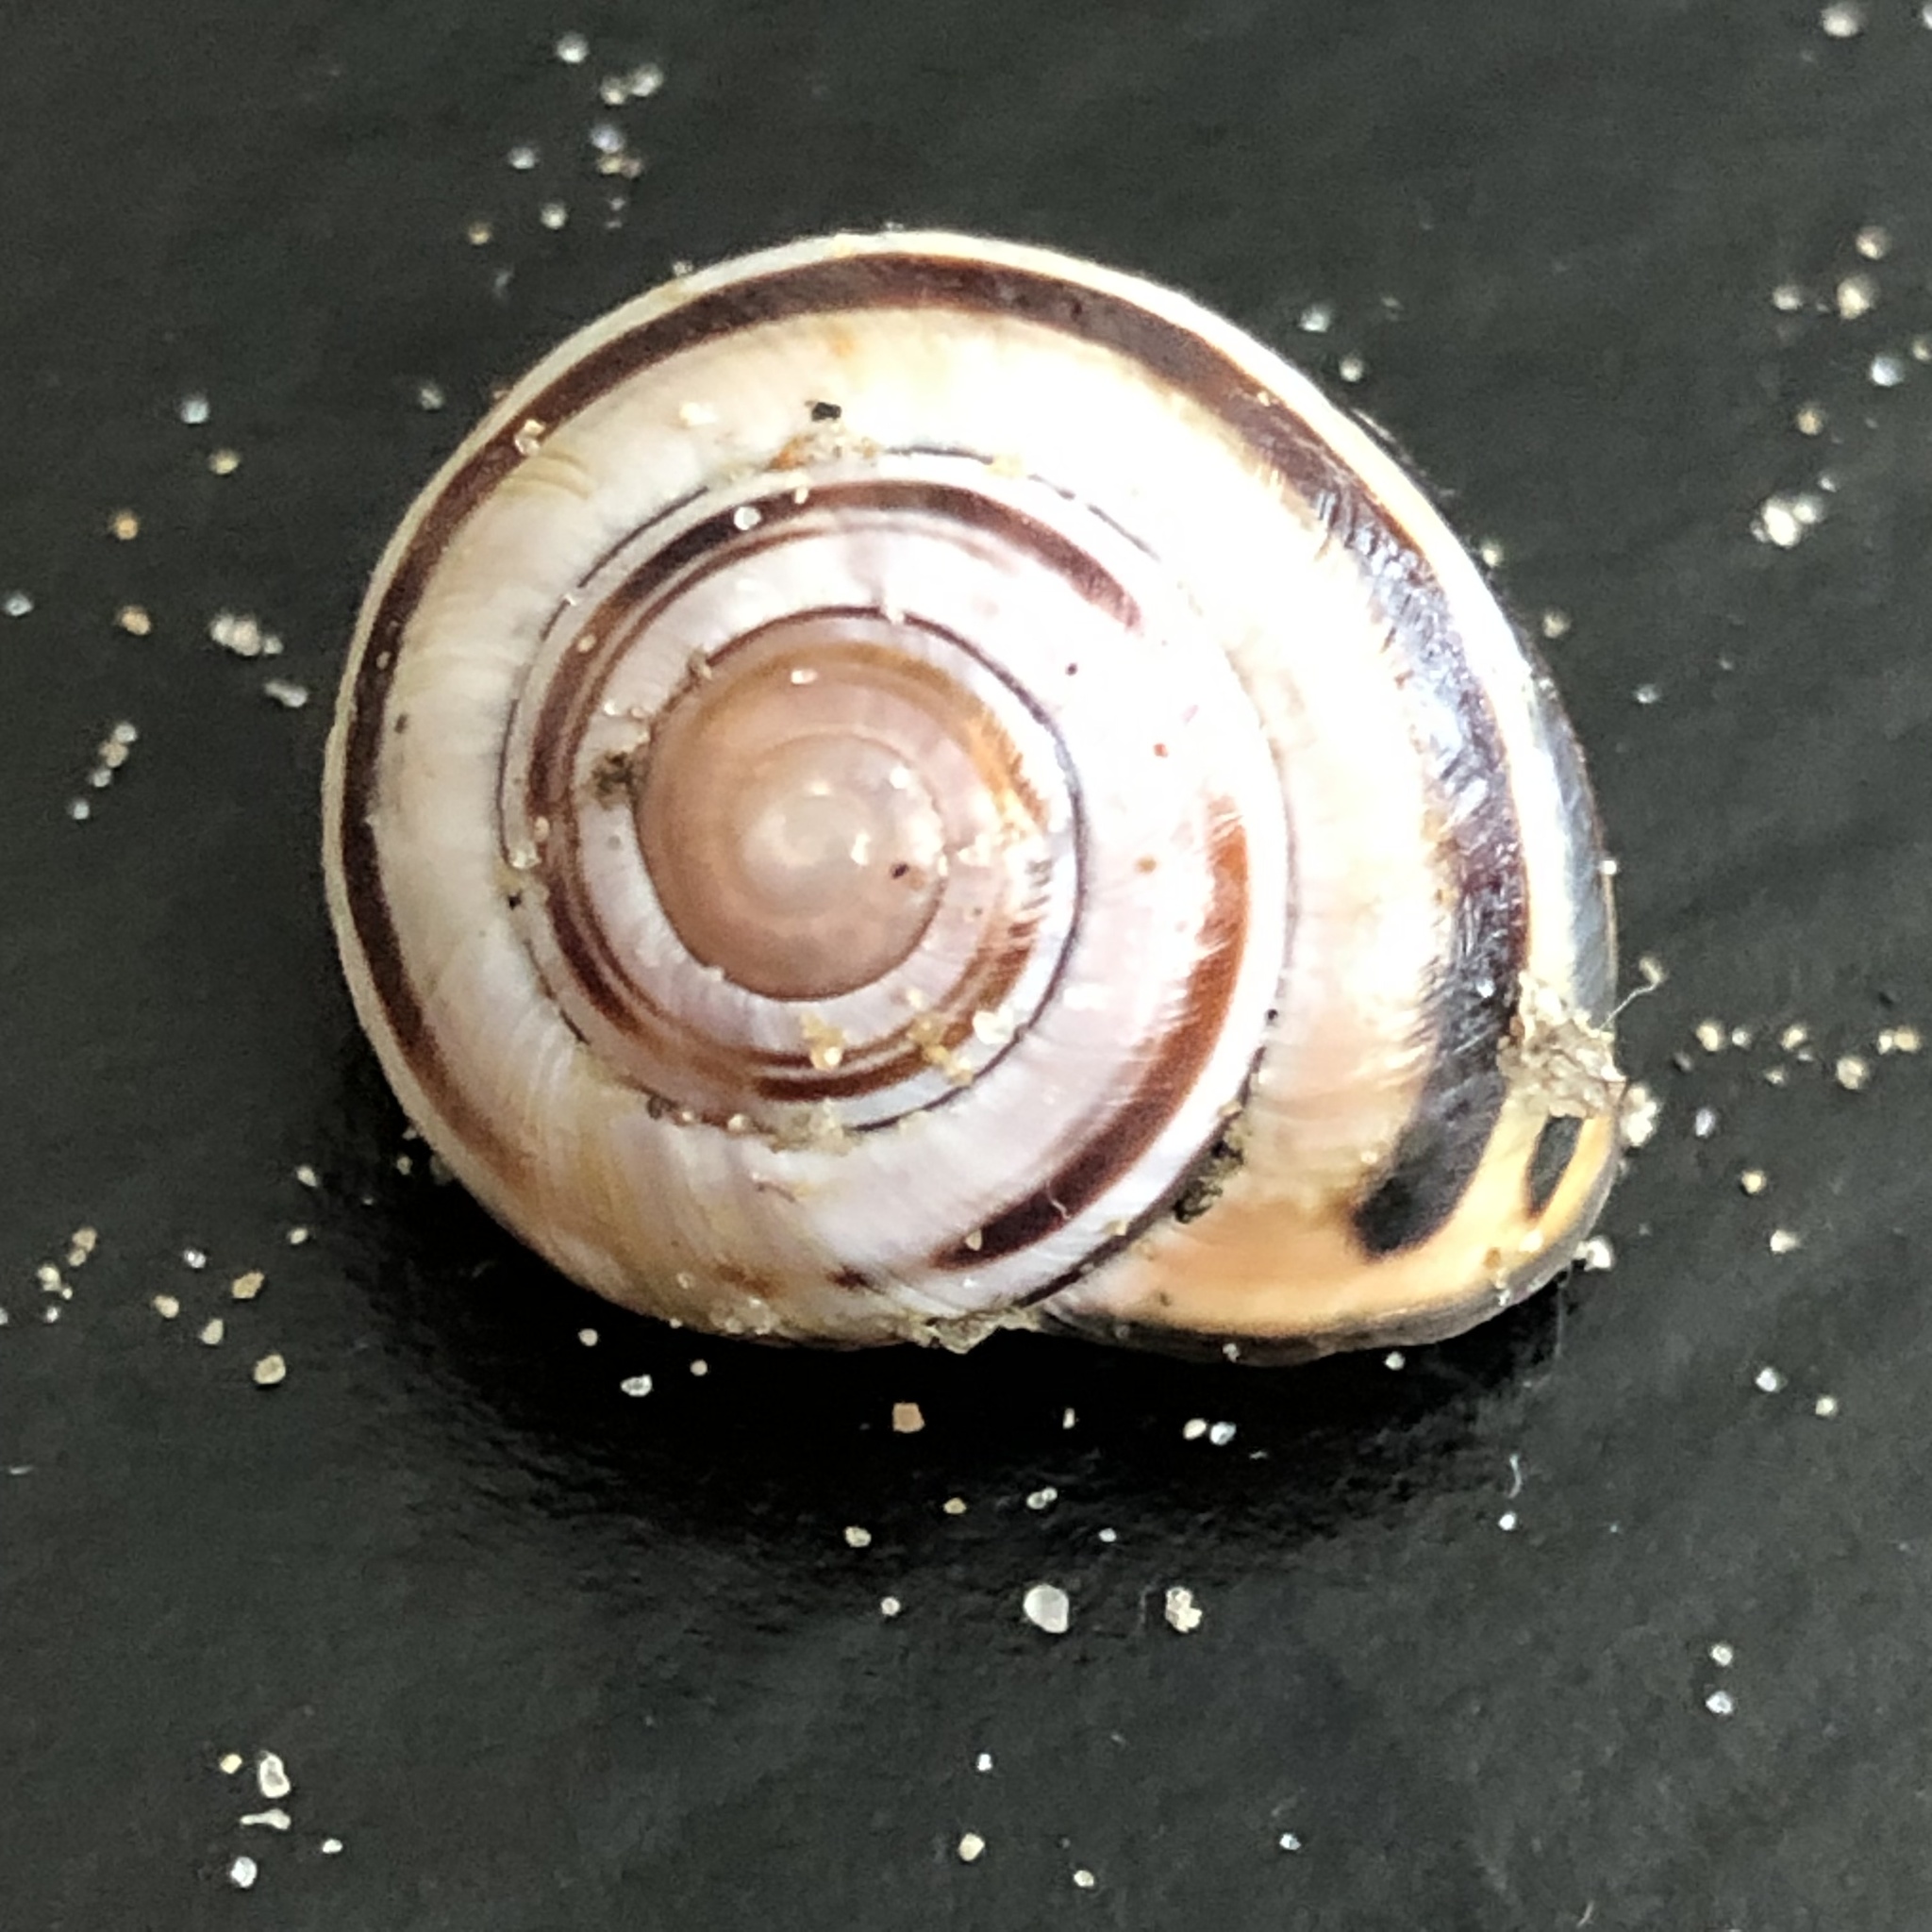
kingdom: Animalia
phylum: Mollusca
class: Gastropoda
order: Stylommatophora
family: Helicidae
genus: Cepaea
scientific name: Cepaea nemoralis
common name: Grovesnail
